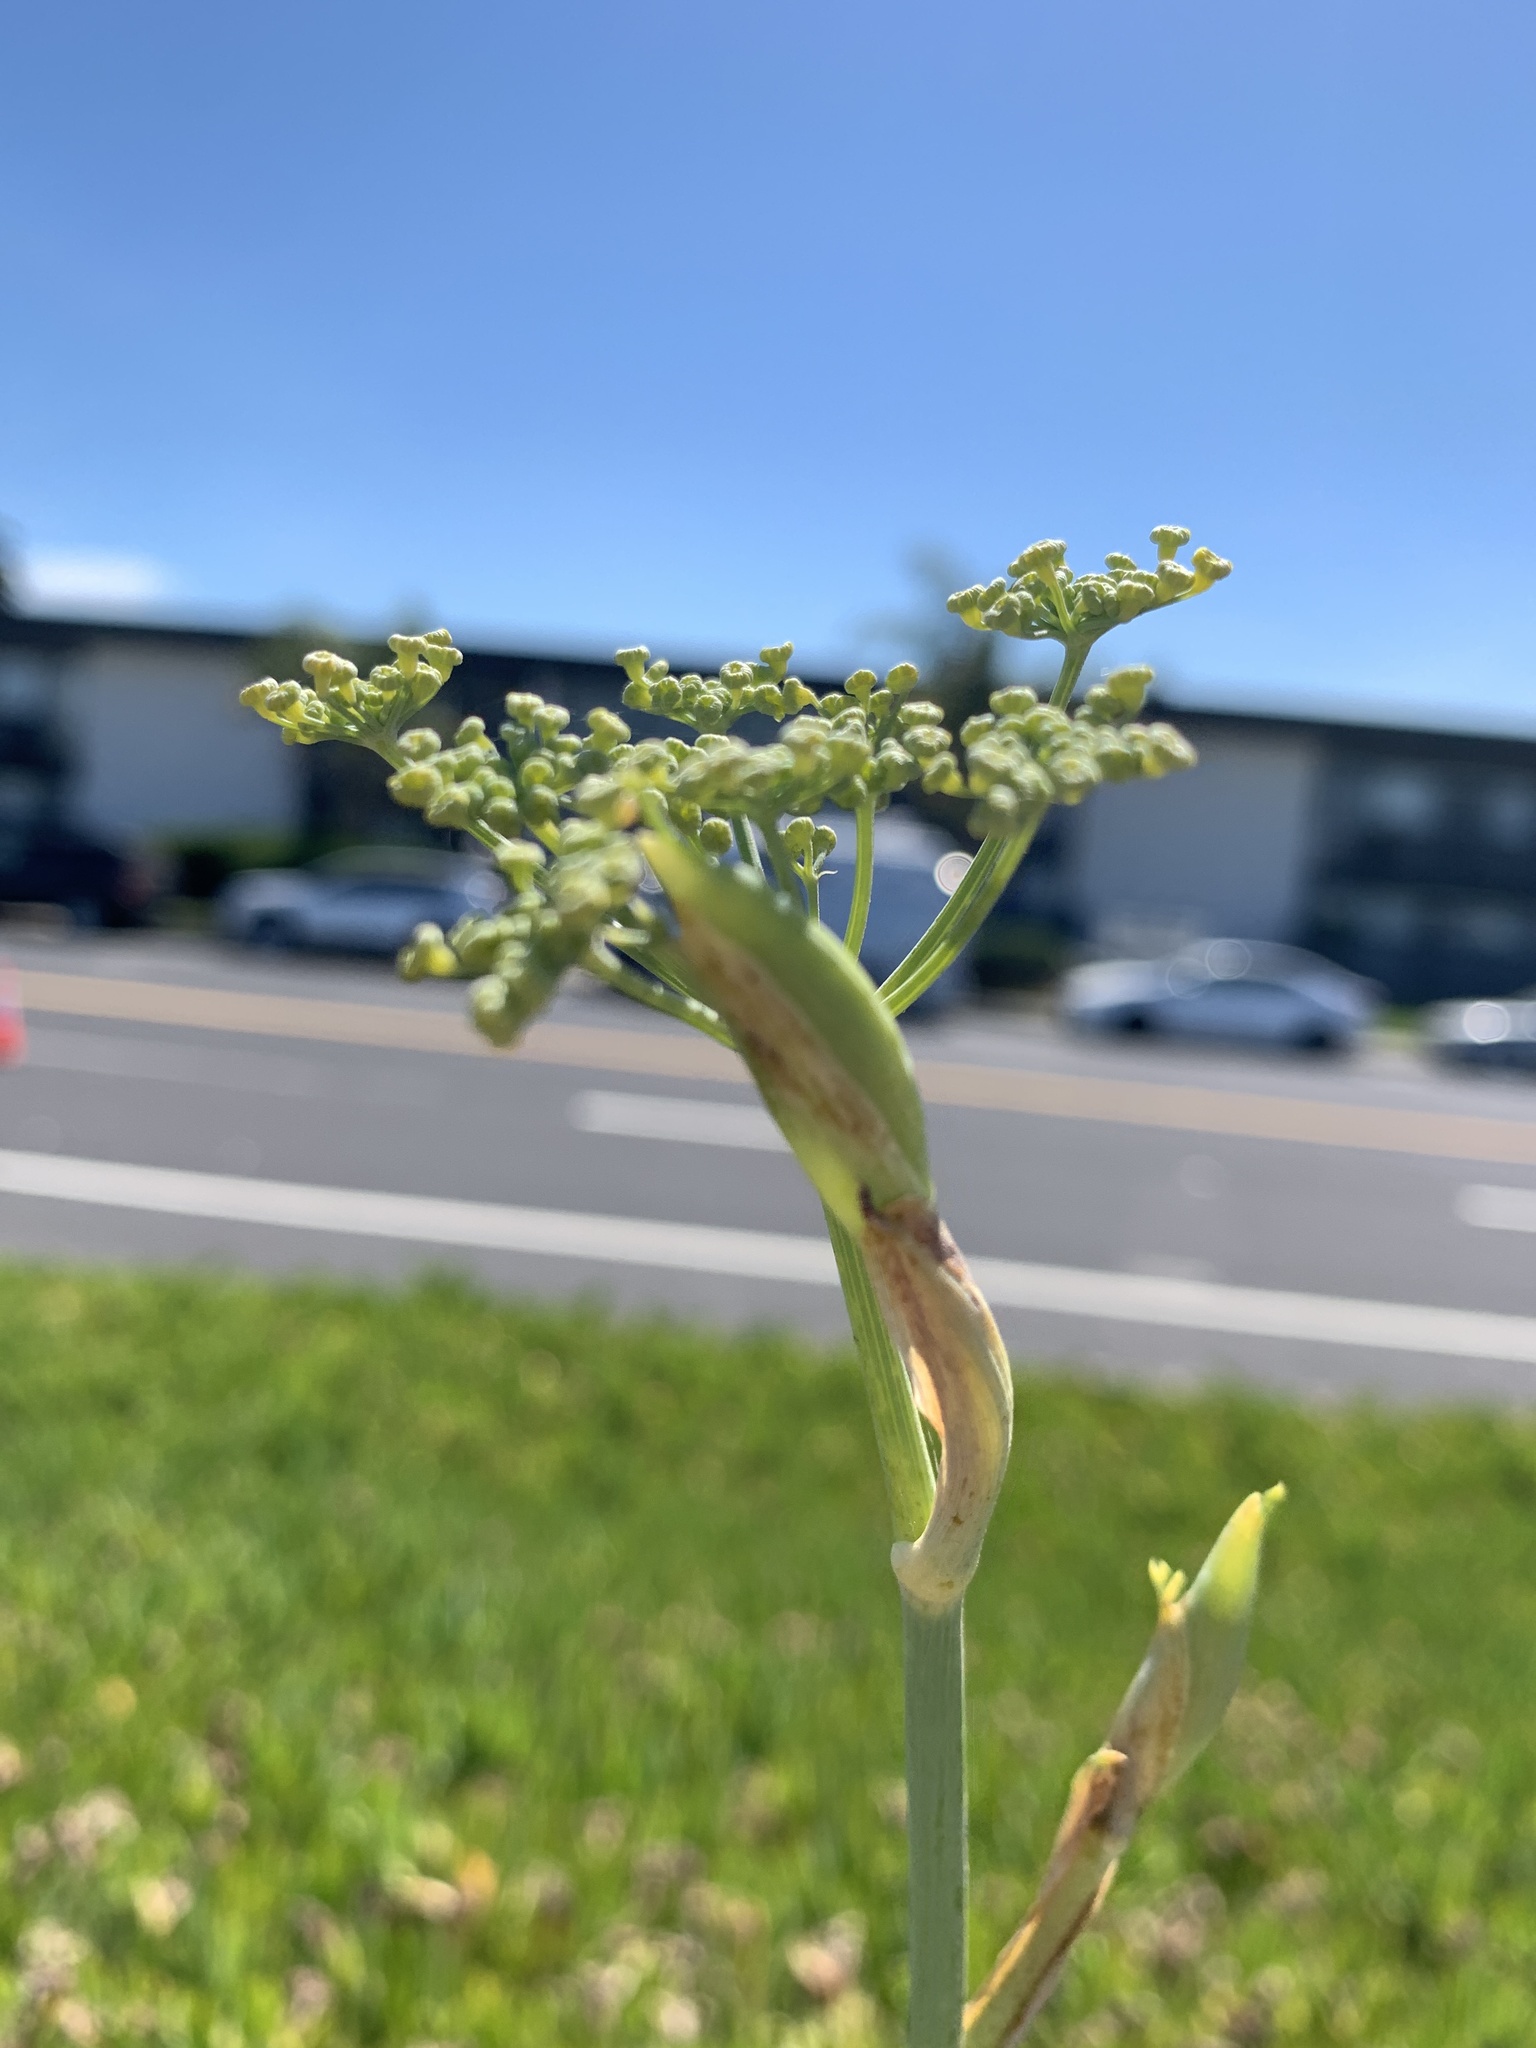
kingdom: Plantae
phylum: Tracheophyta
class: Magnoliopsida
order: Apiales
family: Apiaceae
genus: Foeniculum
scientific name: Foeniculum vulgare
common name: Fennel
